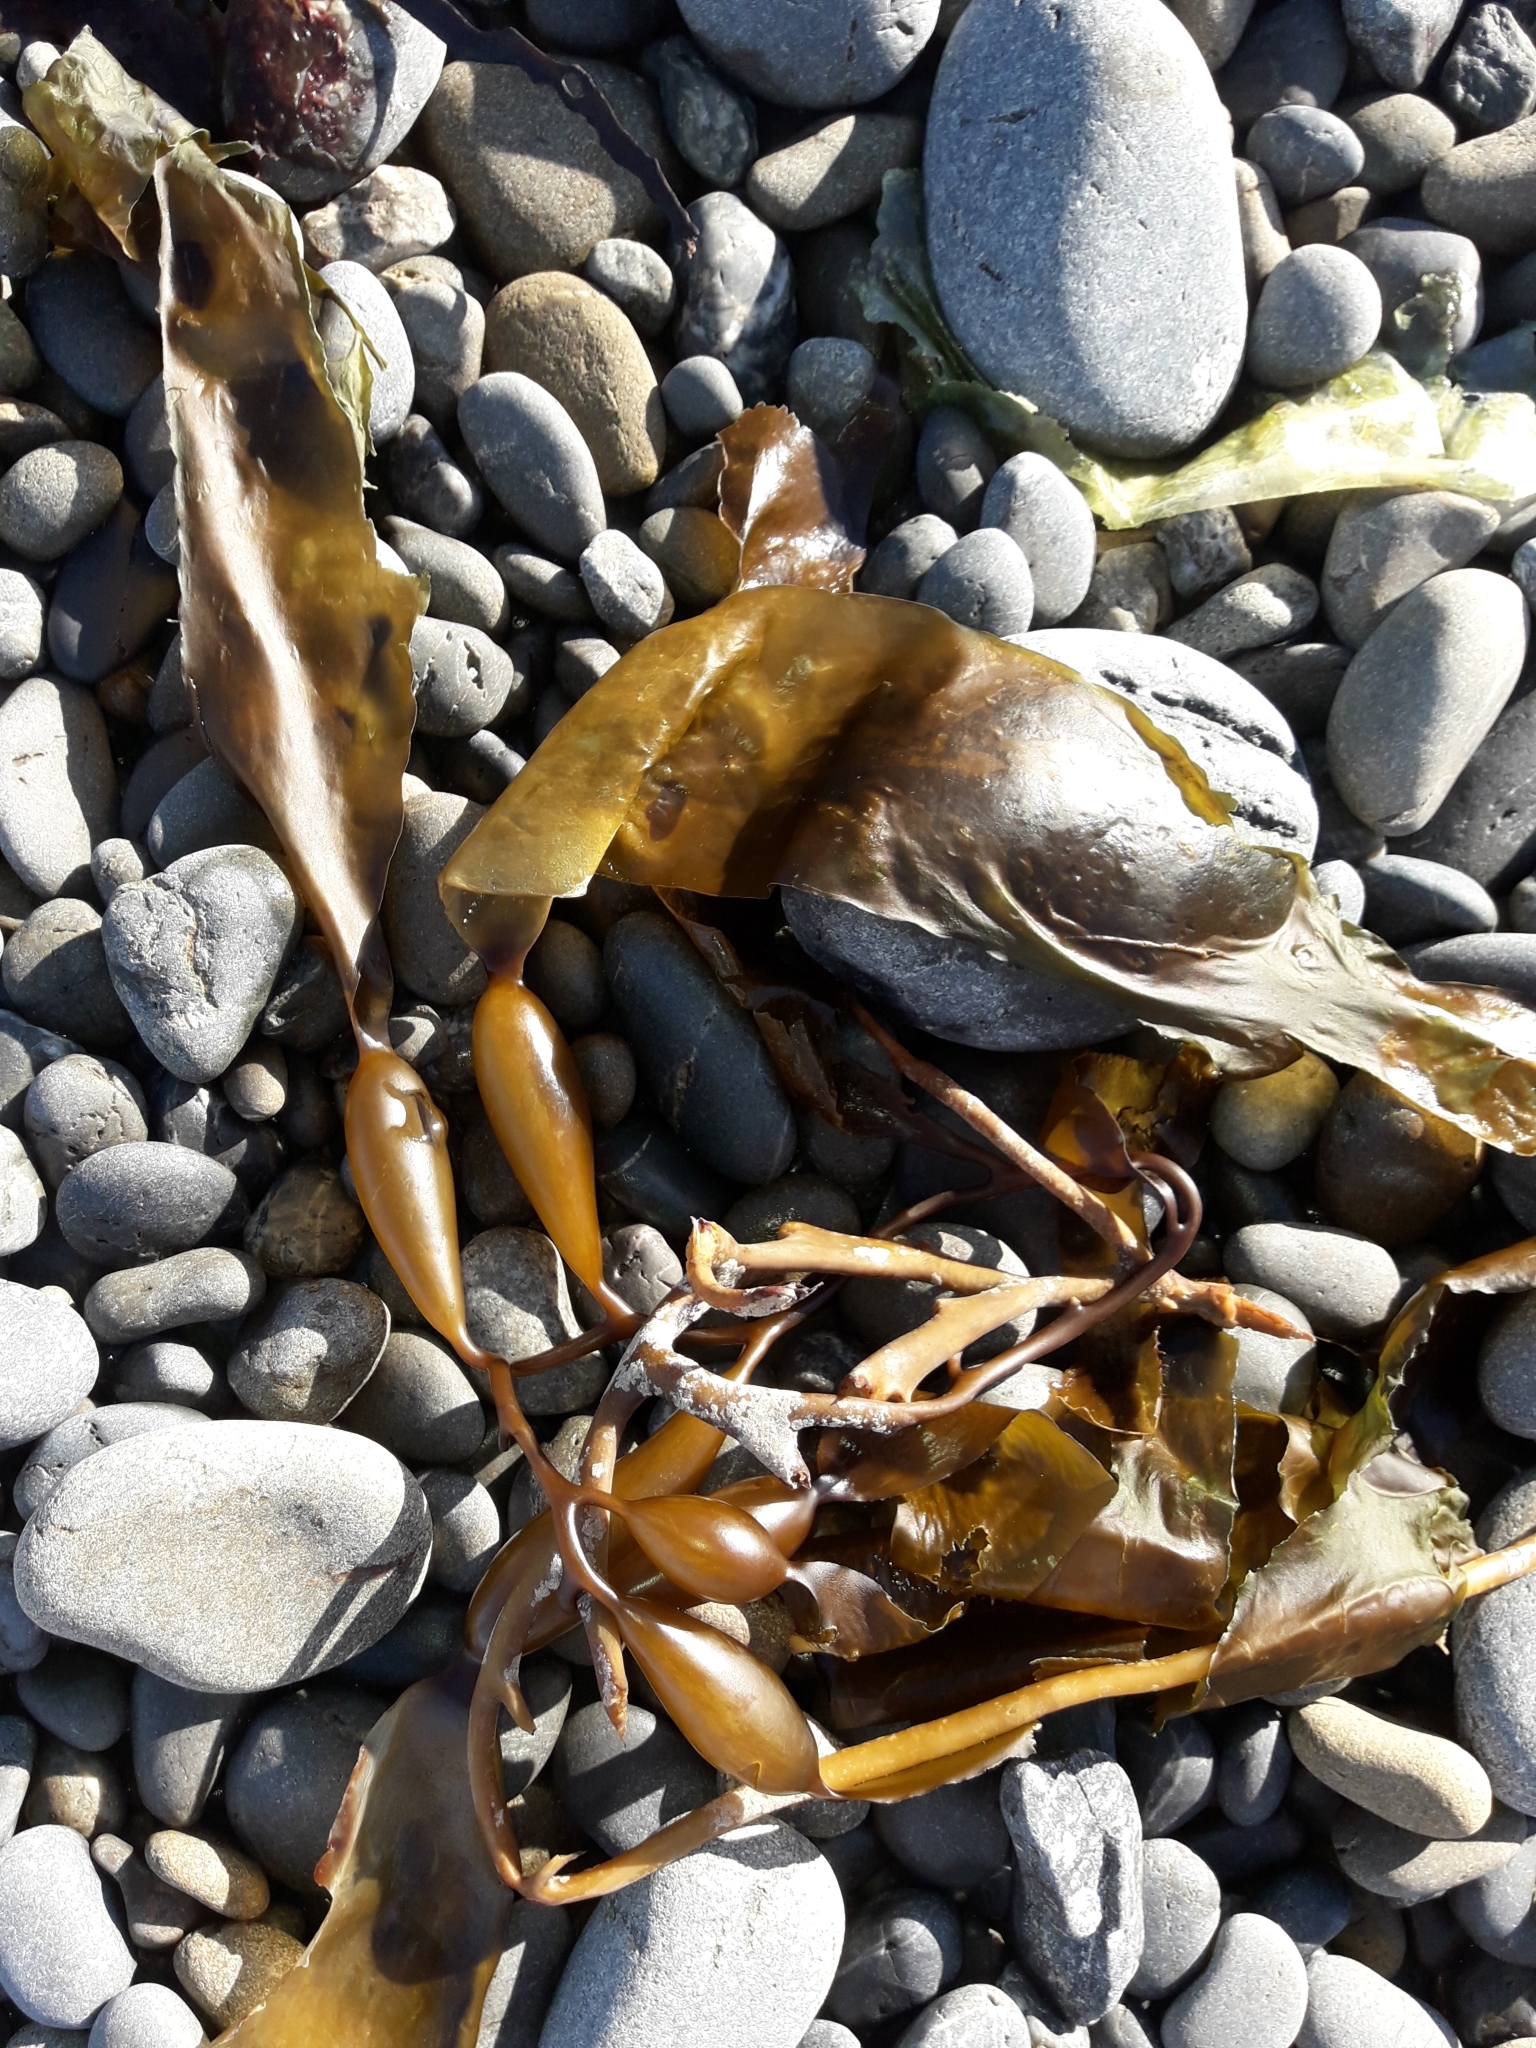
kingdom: Chromista
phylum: Ochrophyta
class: Phaeophyceae
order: Laminariales
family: Laminariaceae
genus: Macrocystis
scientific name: Macrocystis pyrifera
